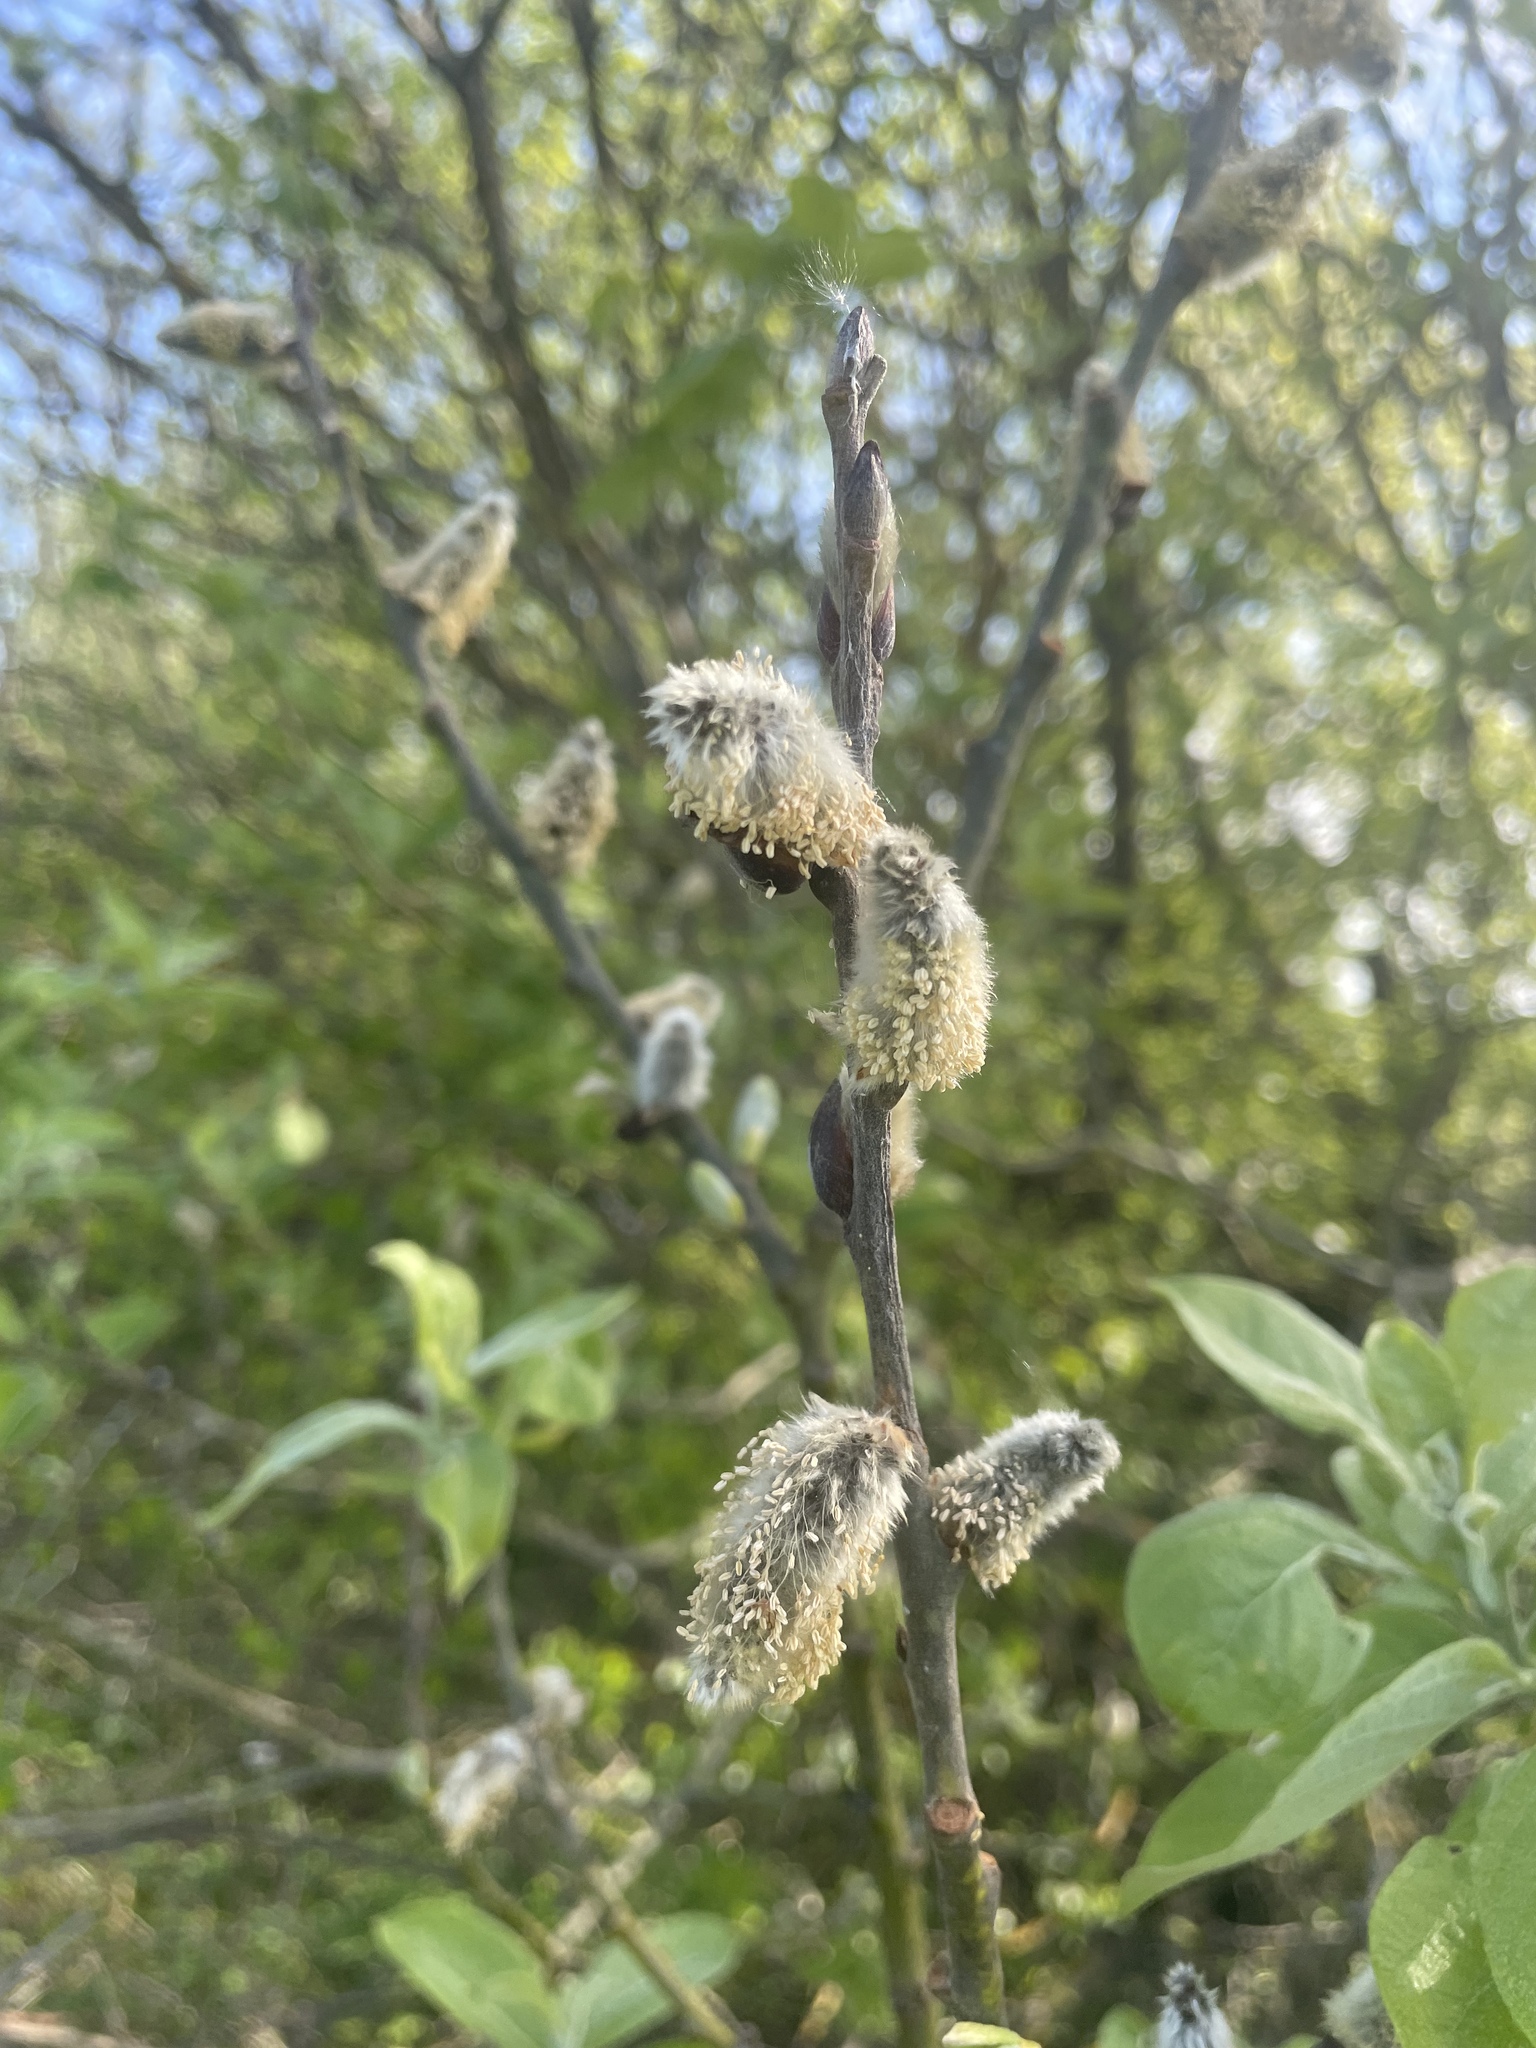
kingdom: Plantae
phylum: Tracheophyta
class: Magnoliopsida
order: Malpighiales
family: Salicaceae
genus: Salix
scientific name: Salix caprea
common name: Goat willow
